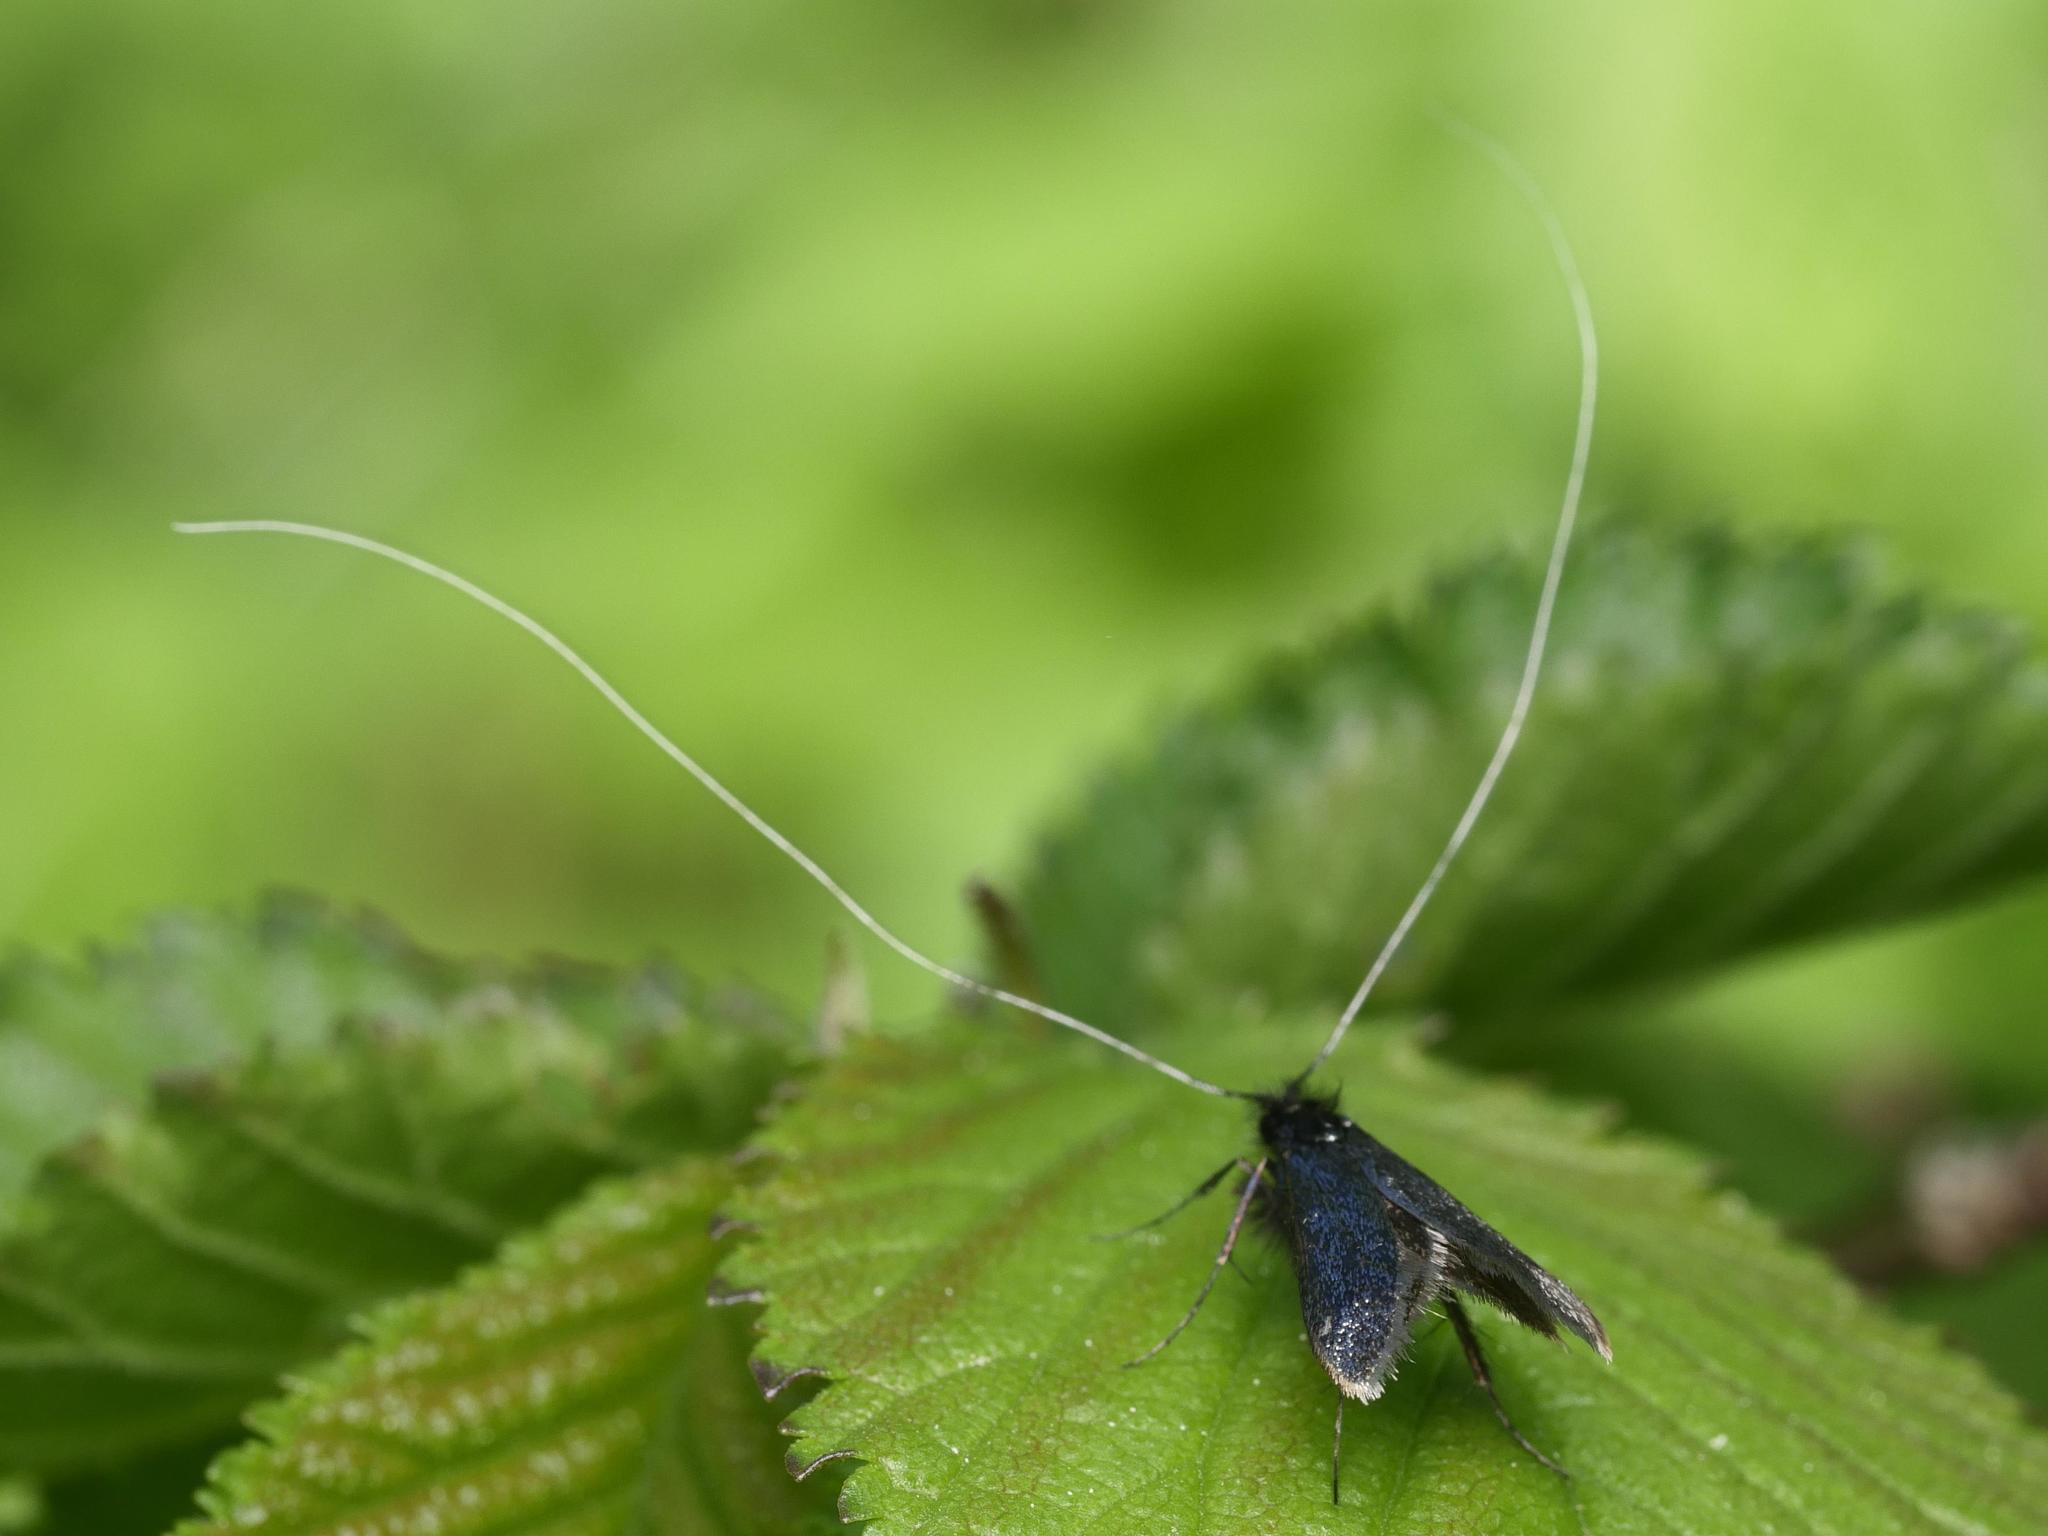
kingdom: Animalia
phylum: Arthropoda
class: Insecta
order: Lepidoptera
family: Adelidae
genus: Adela
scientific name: Adela viridella
